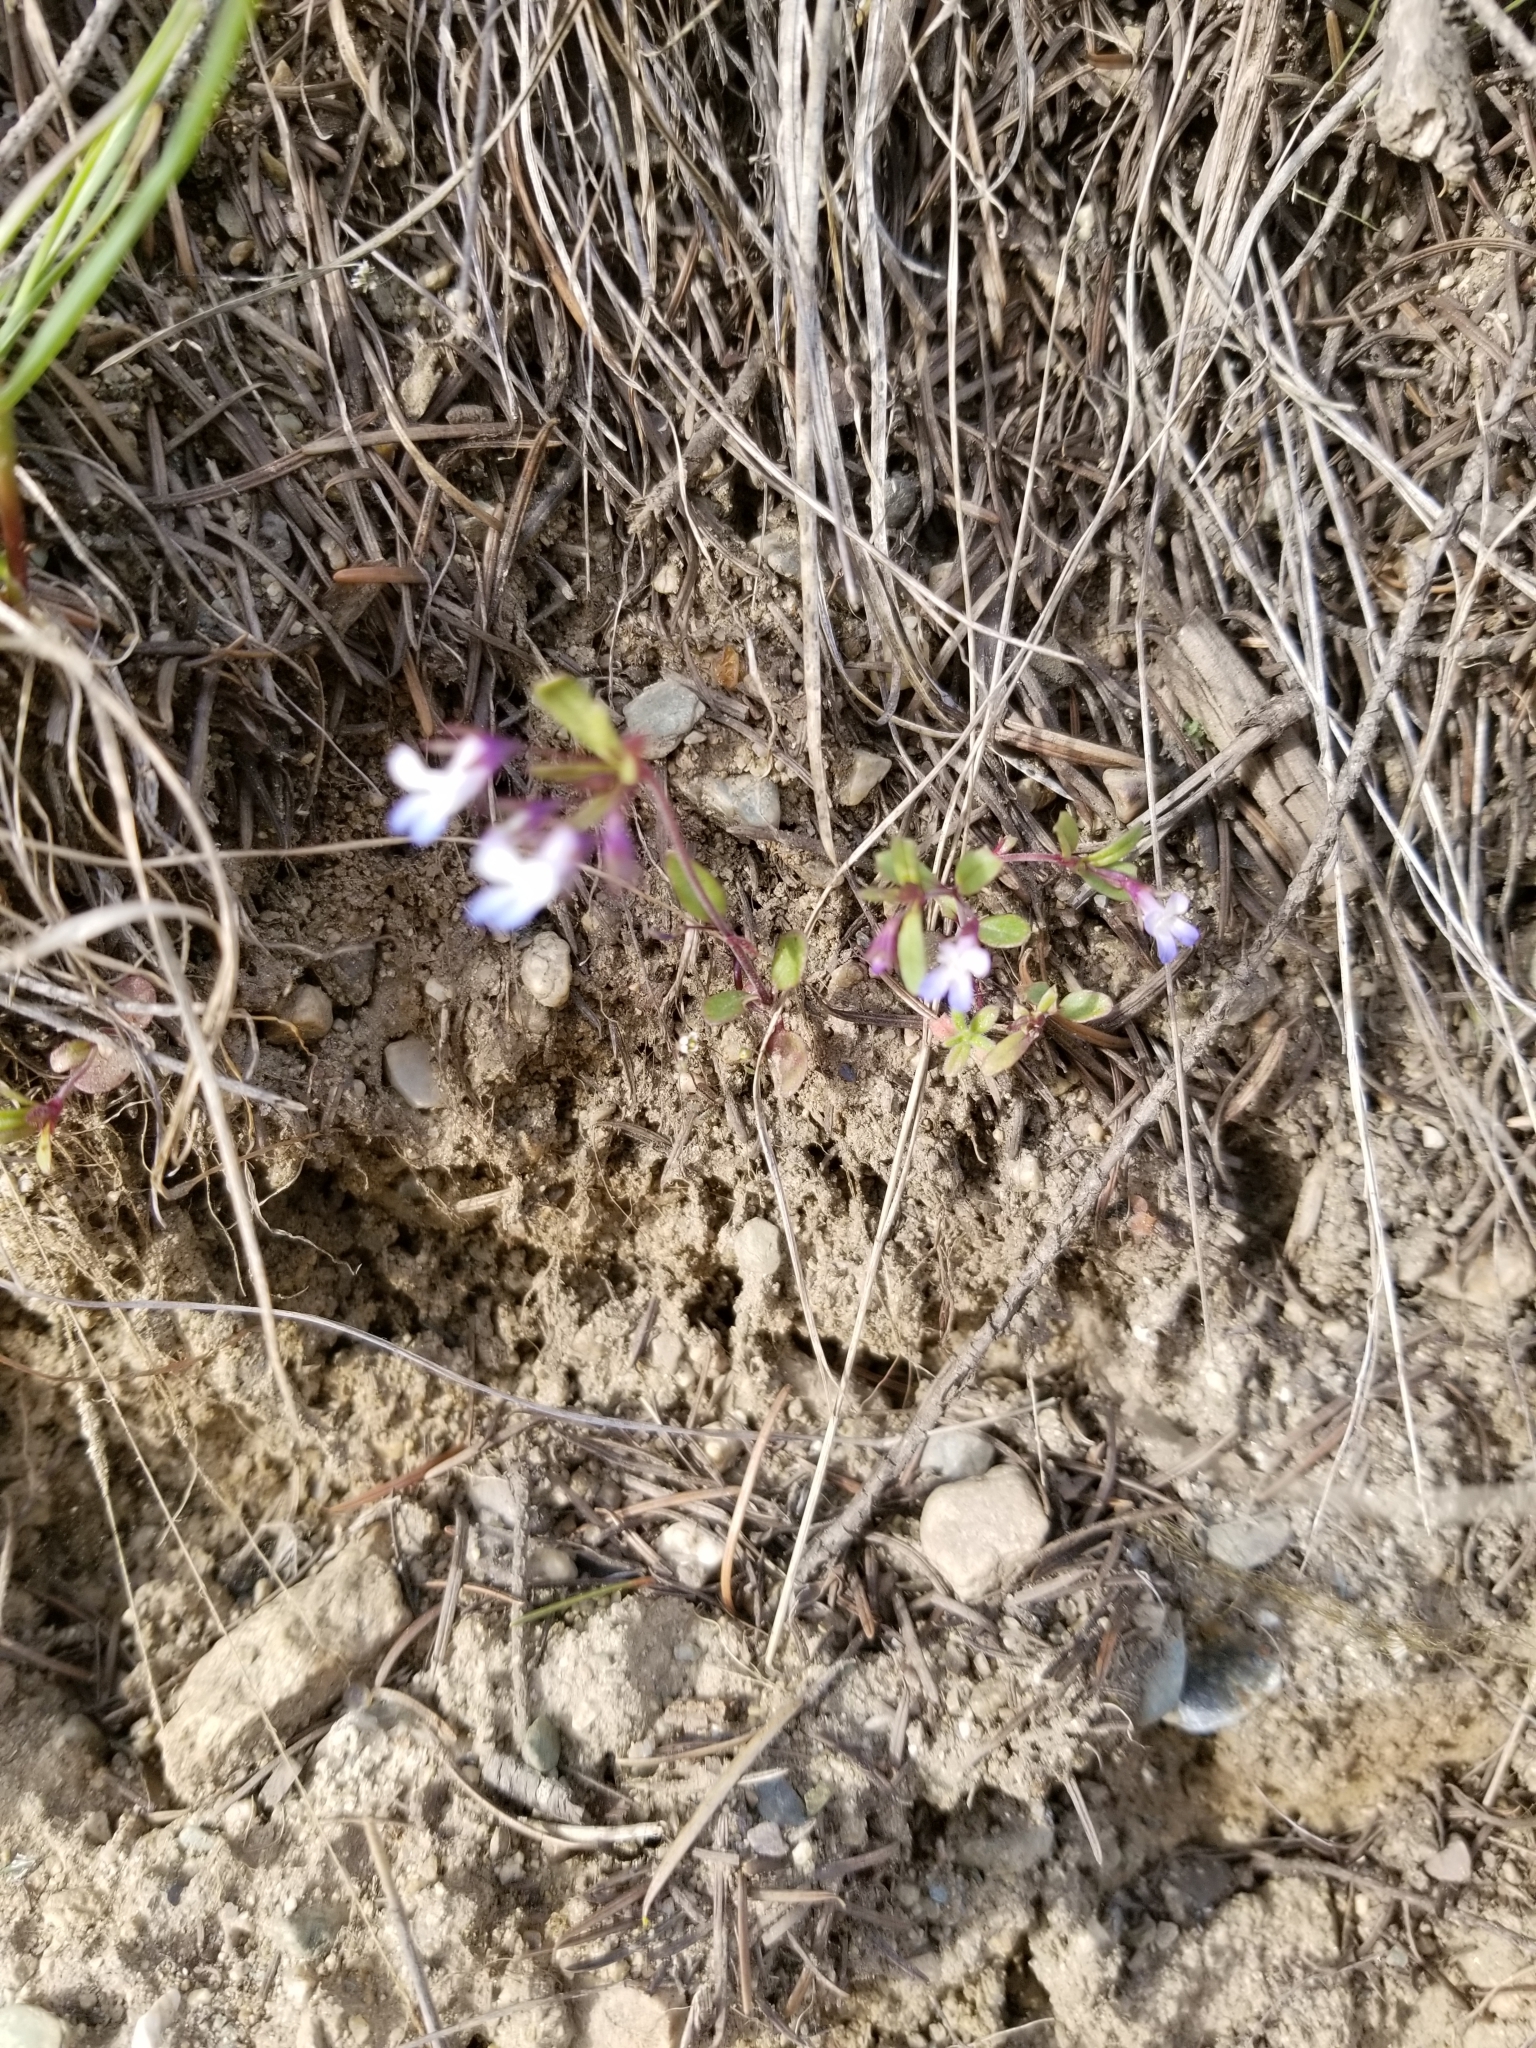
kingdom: Plantae
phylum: Tracheophyta
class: Magnoliopsida
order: Lamiales
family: Plantaginaceae
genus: Collinsia
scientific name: Collinsia parviflora
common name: Blue-lips
